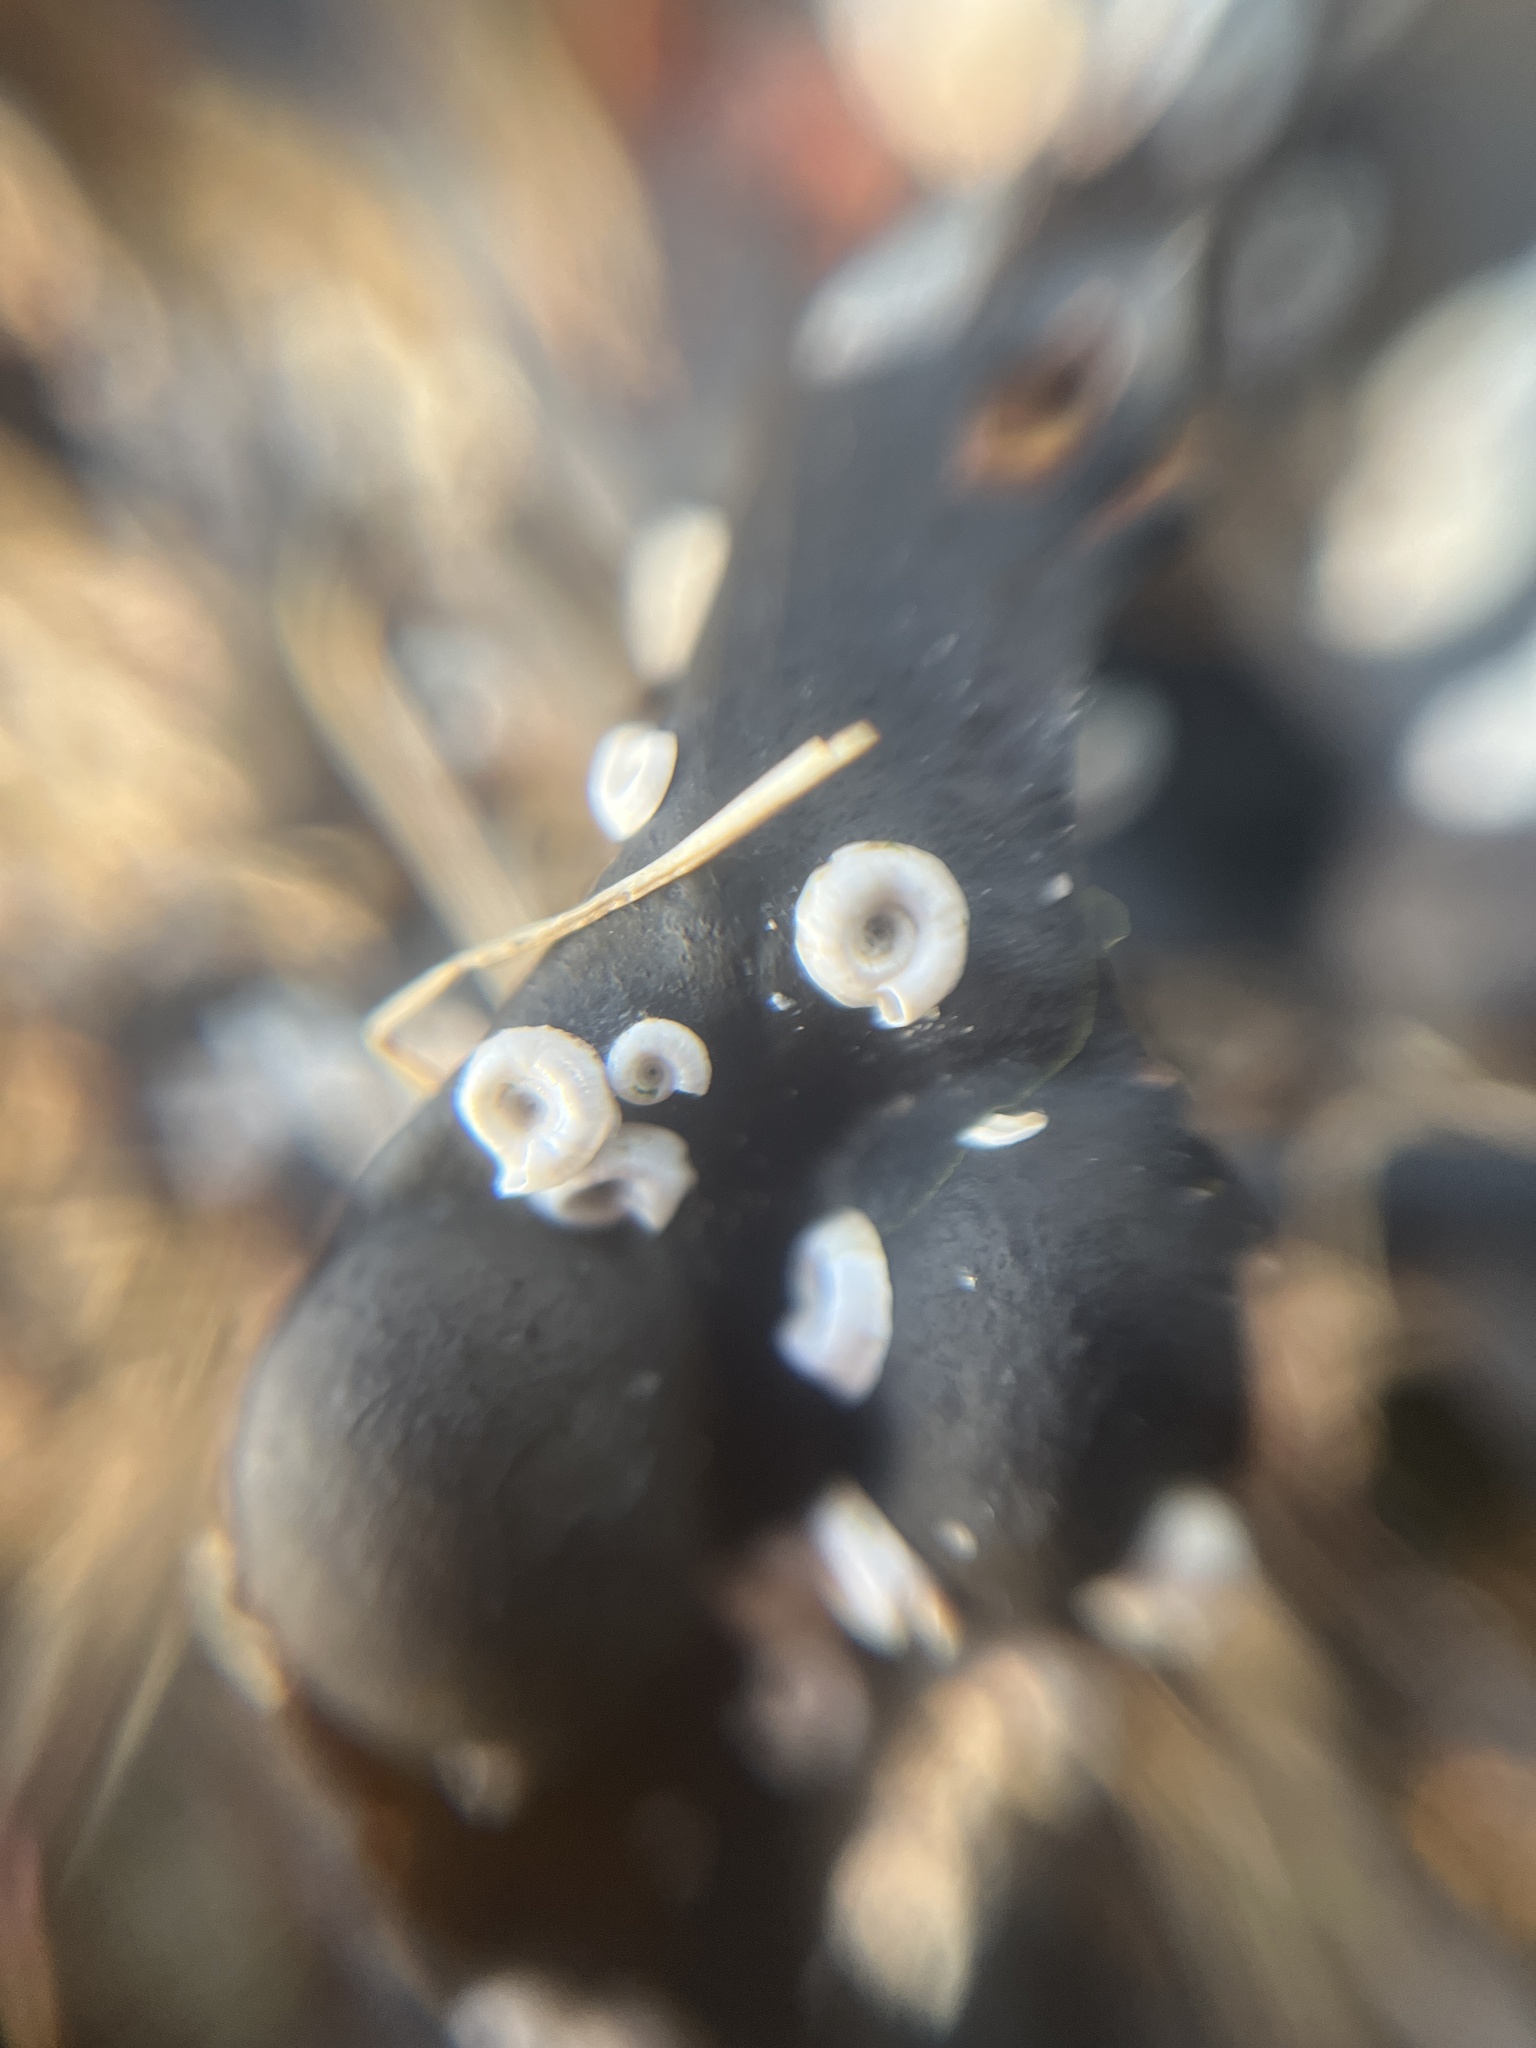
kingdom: Animalia
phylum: Annelida
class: Polychaeta
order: Sabellida
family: Serpulidae
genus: Spirorbis
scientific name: Spirorbis spirorbis
